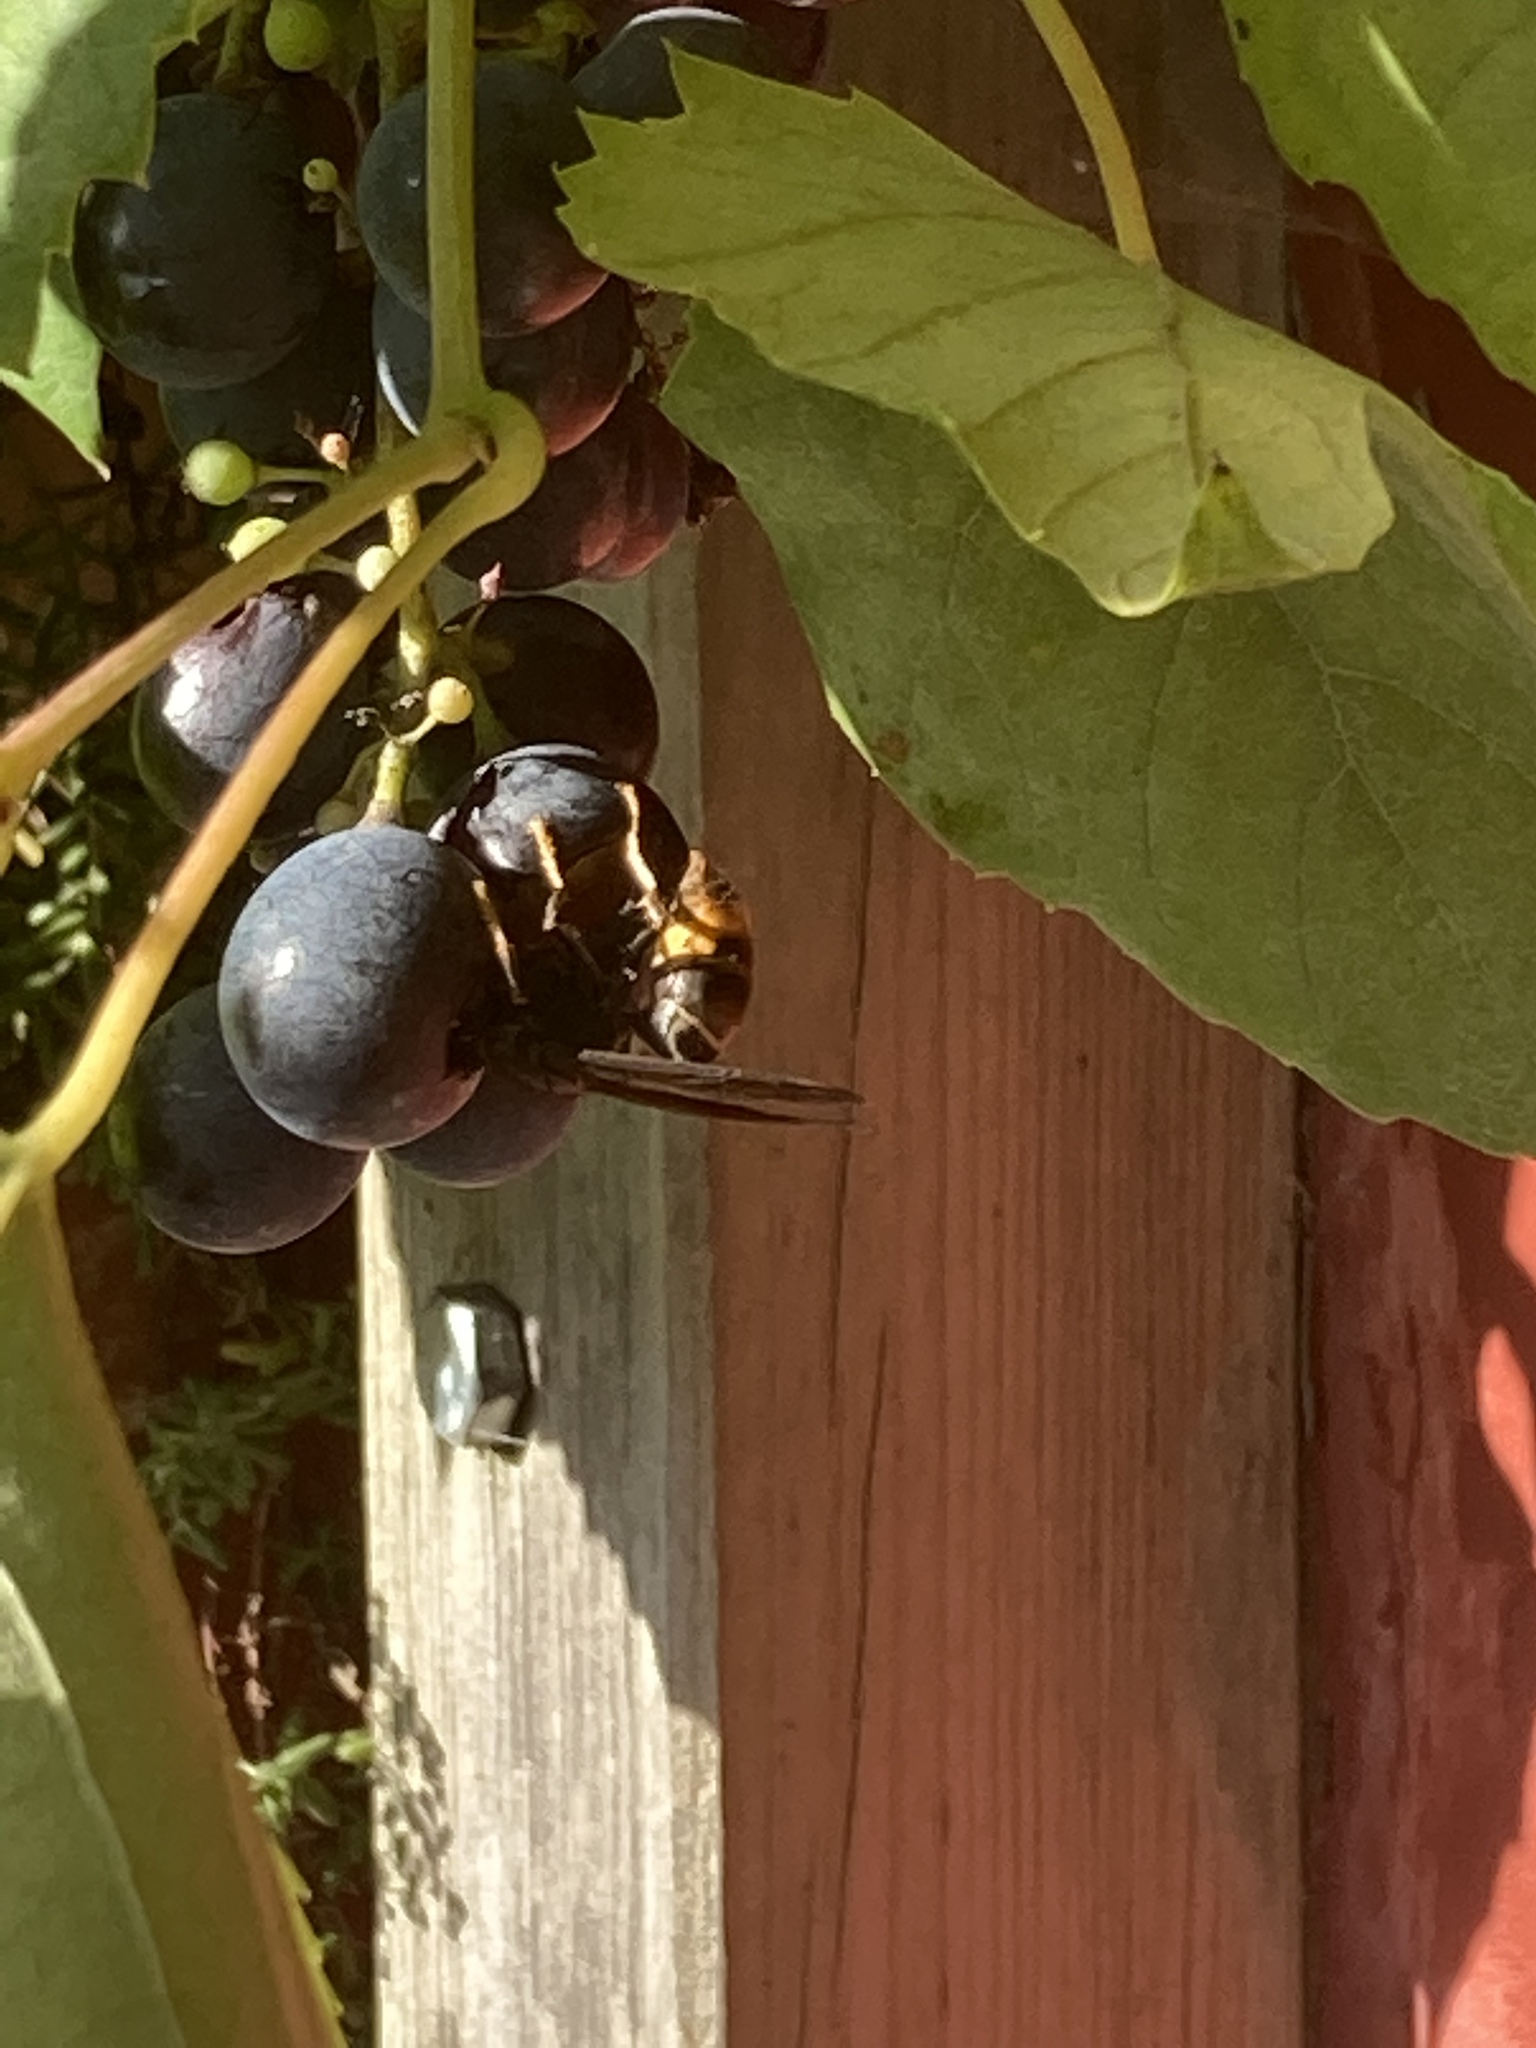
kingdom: Animalia
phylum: Arthropoda
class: Insecta
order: Hymenoptera
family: Vespidae
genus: Vespa
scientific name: Vespa velutina
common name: Asian hornet
